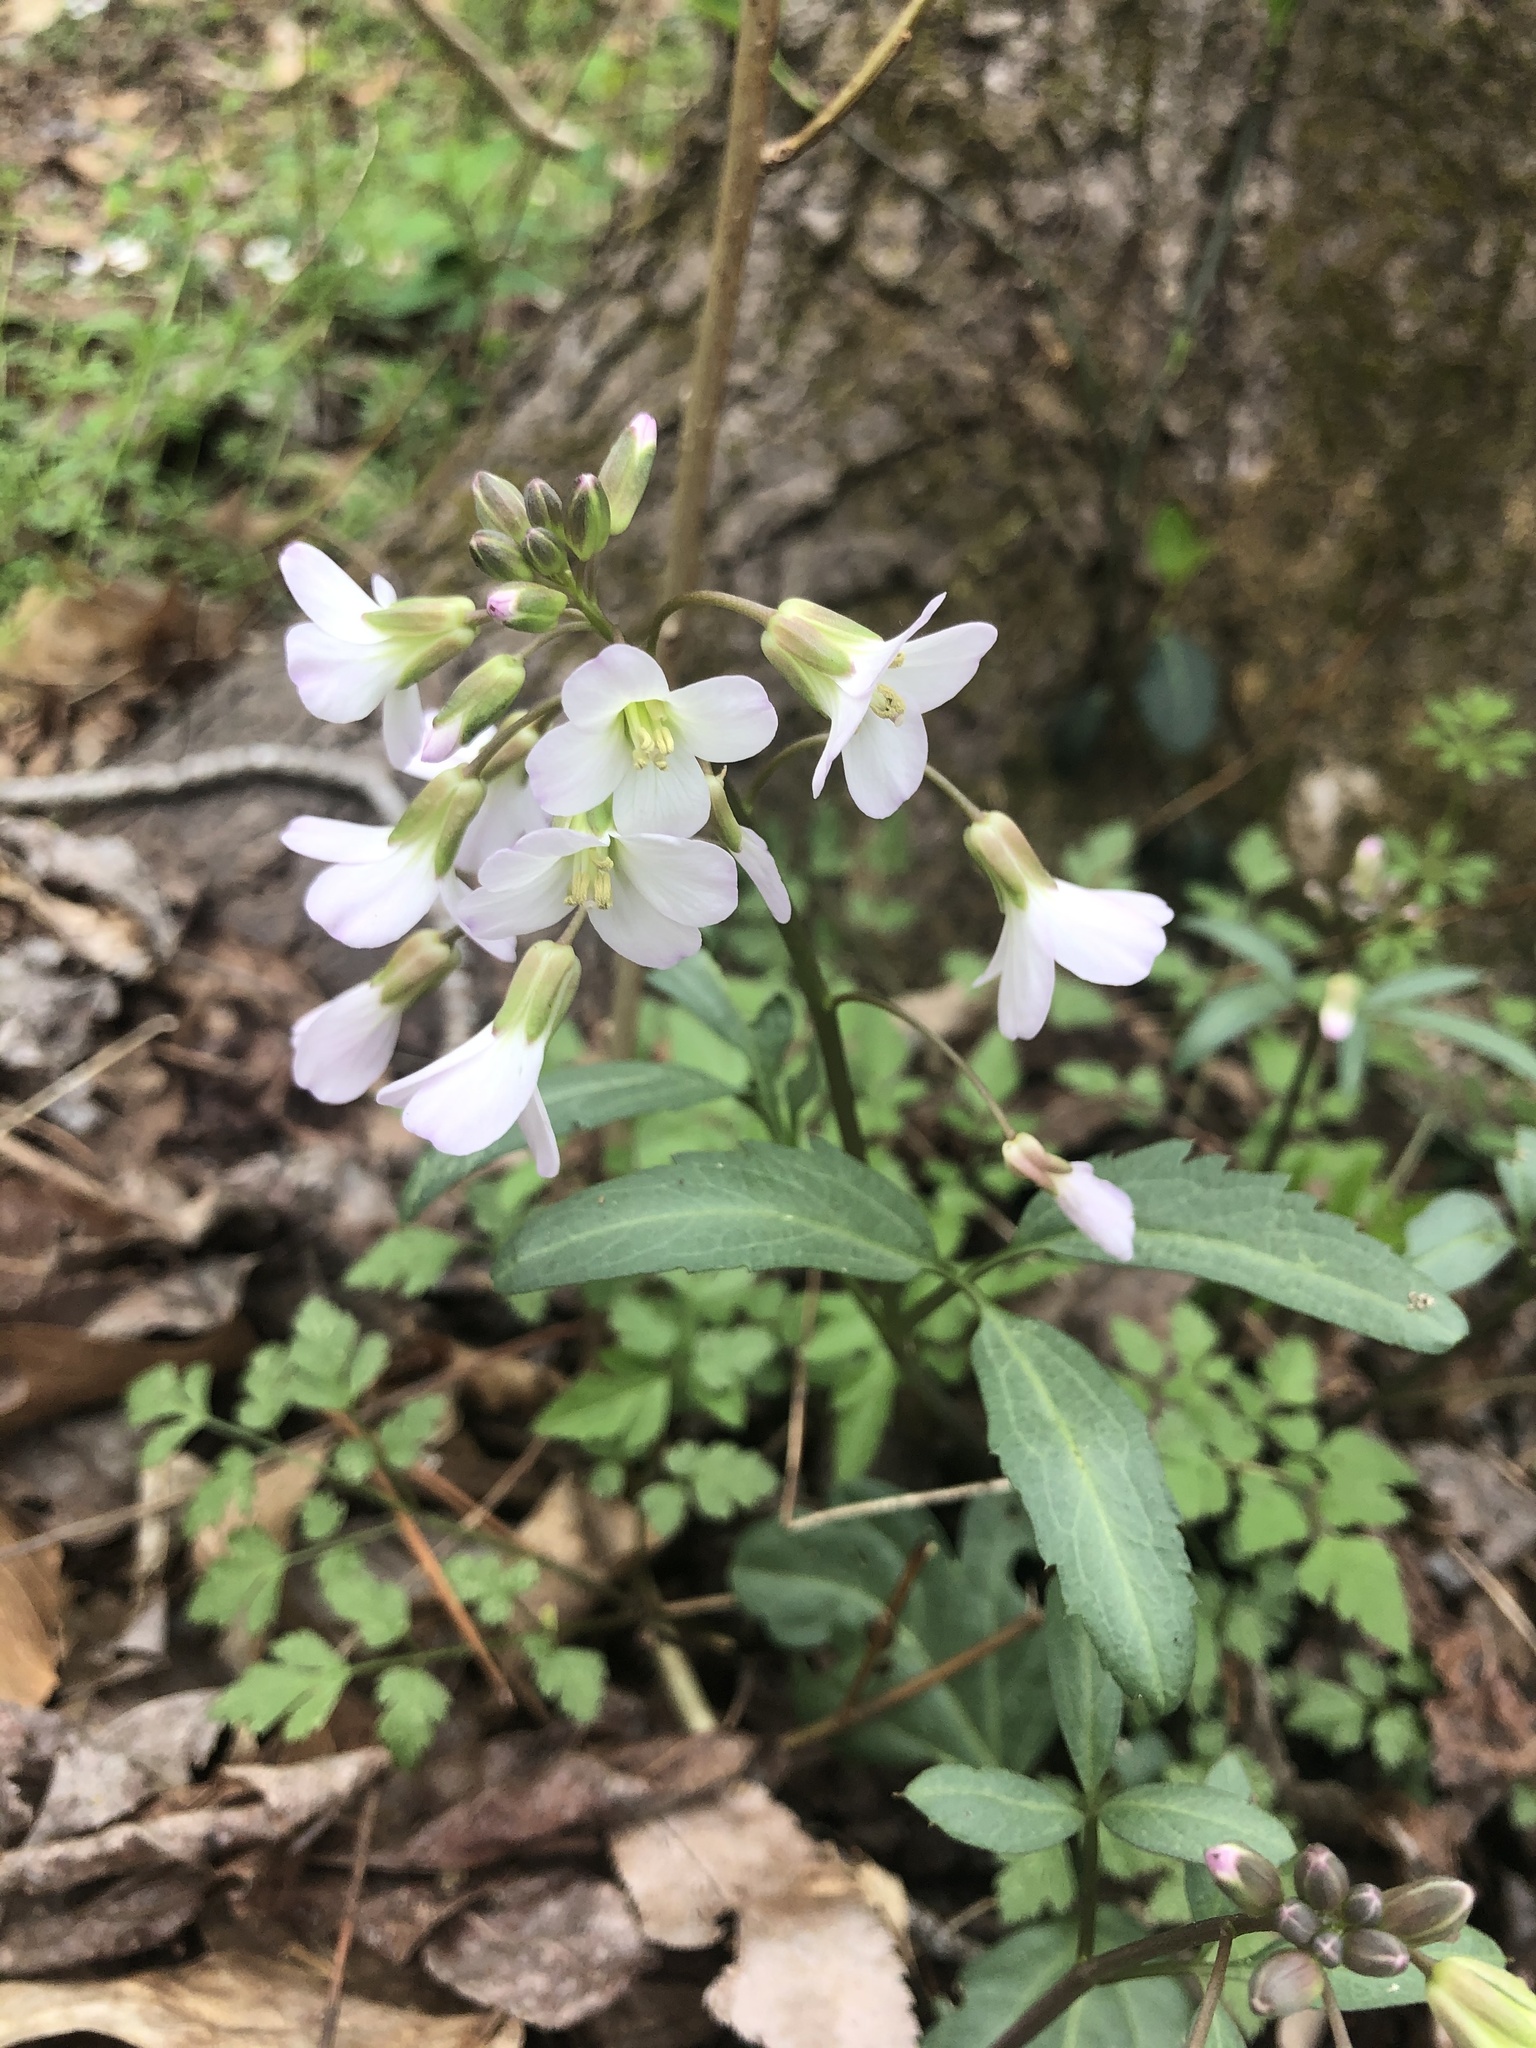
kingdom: Plantae
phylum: Tracheophyta
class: Magnoliopsida
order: Brassicales
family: Brassicaceae
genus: Cardamine
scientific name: Cardamine angustata
